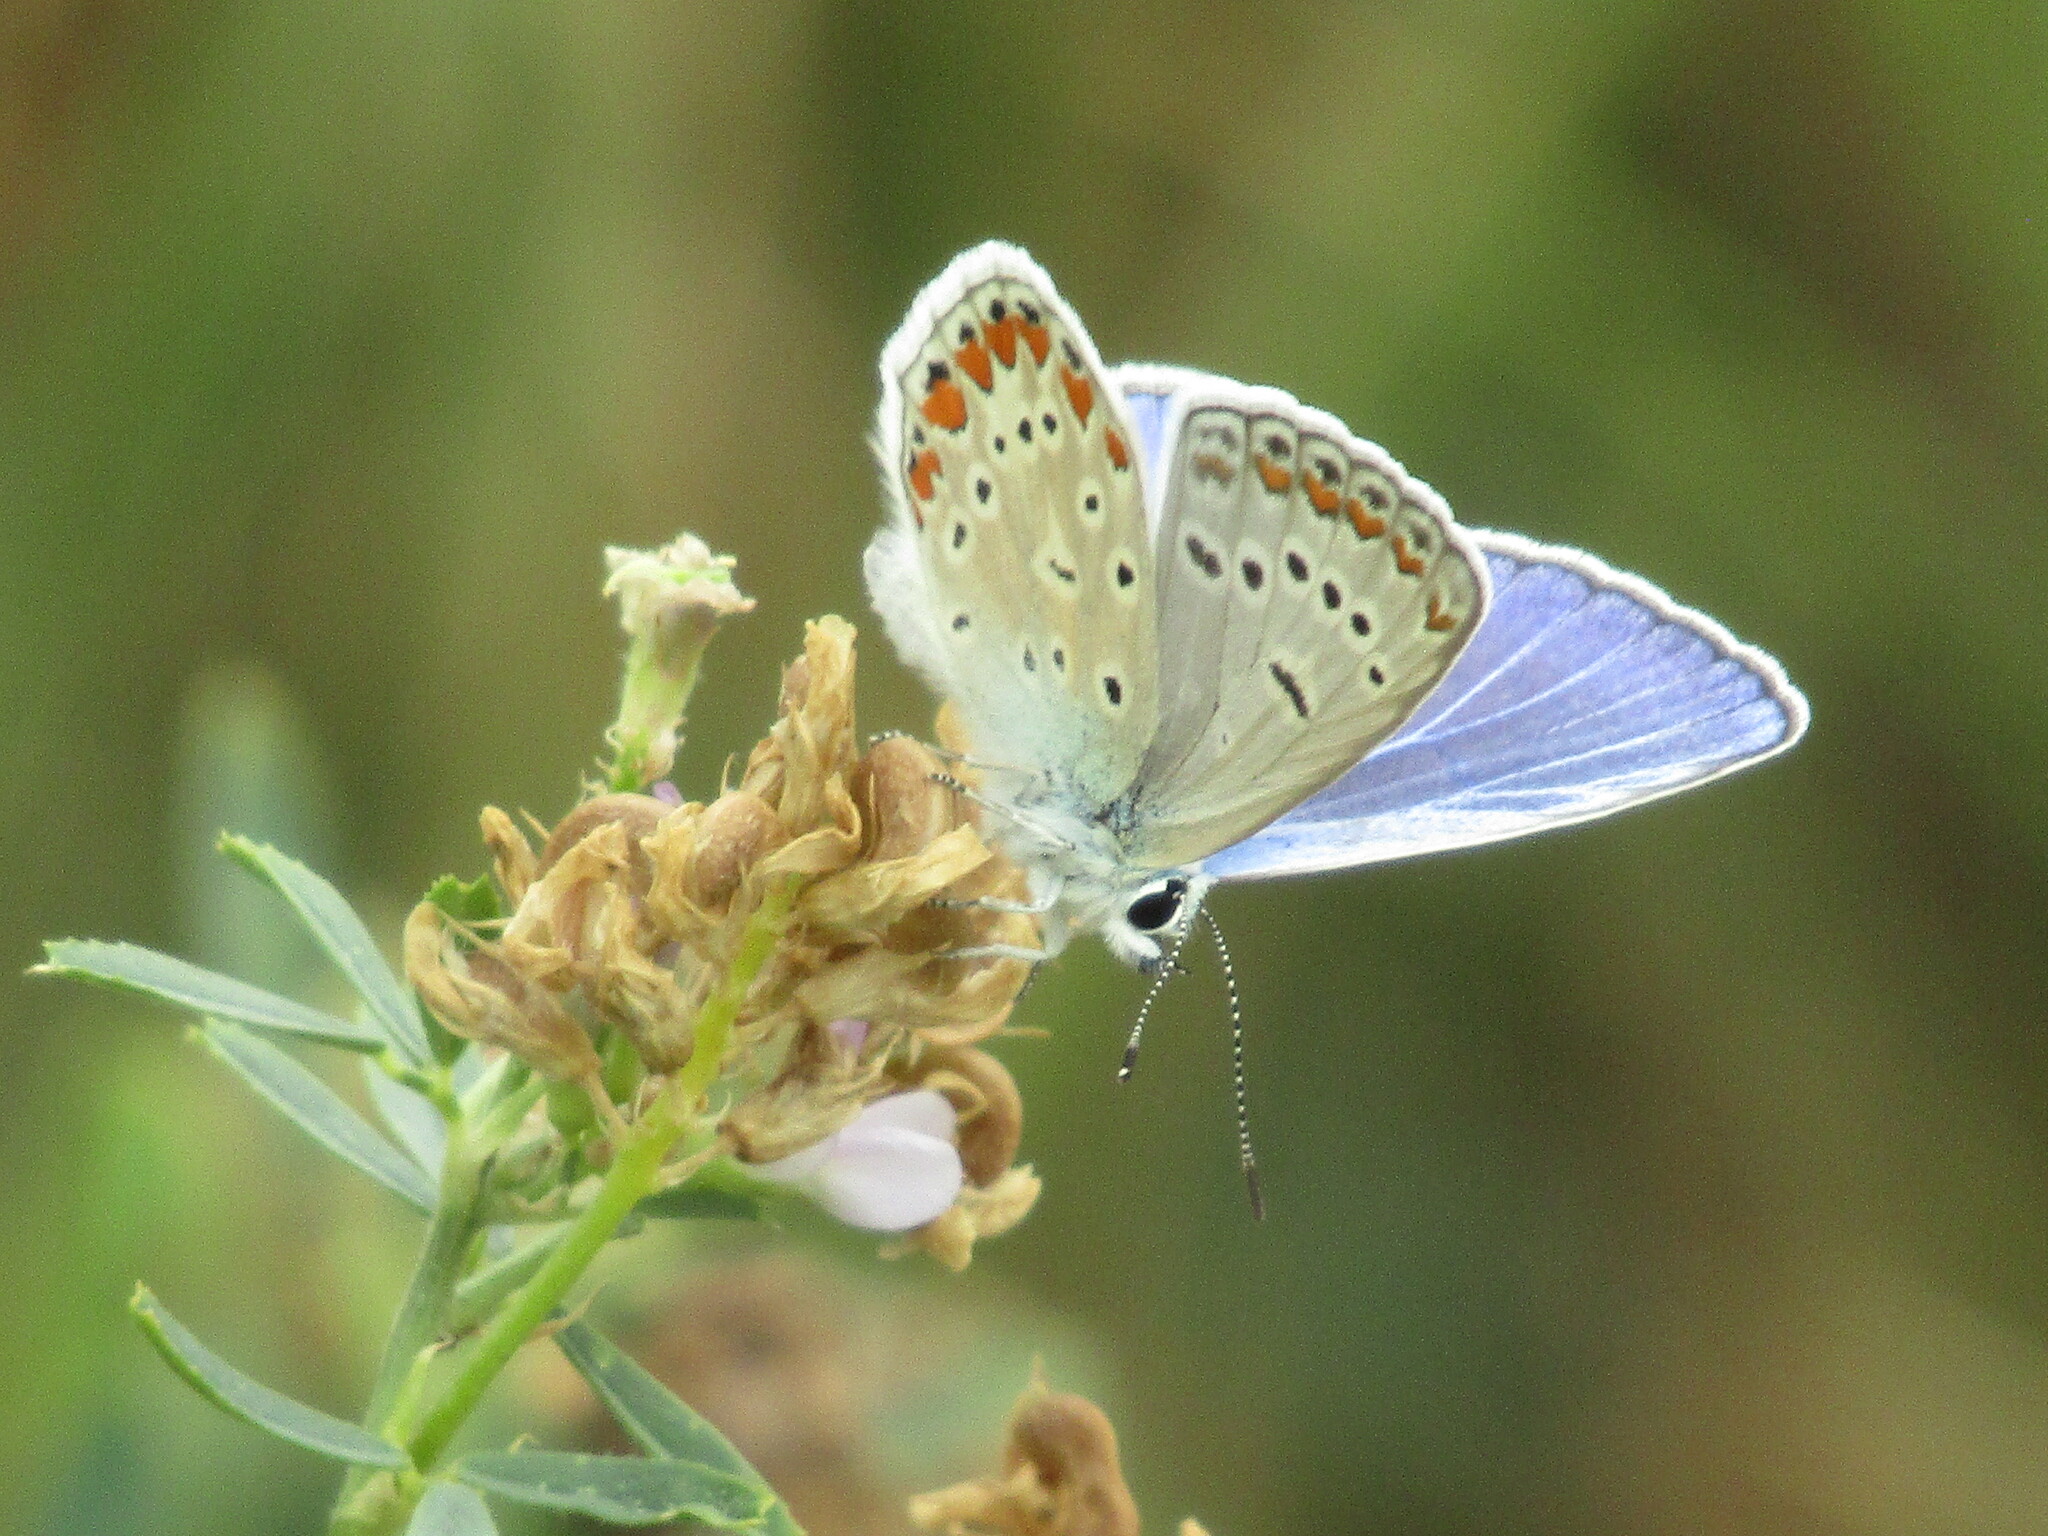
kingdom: Animalia
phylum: Arthropoda
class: Insecta
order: Lepidoptera
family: Lycaenidae
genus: Polyommatus
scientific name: Polyommatus icarus
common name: Common blue
